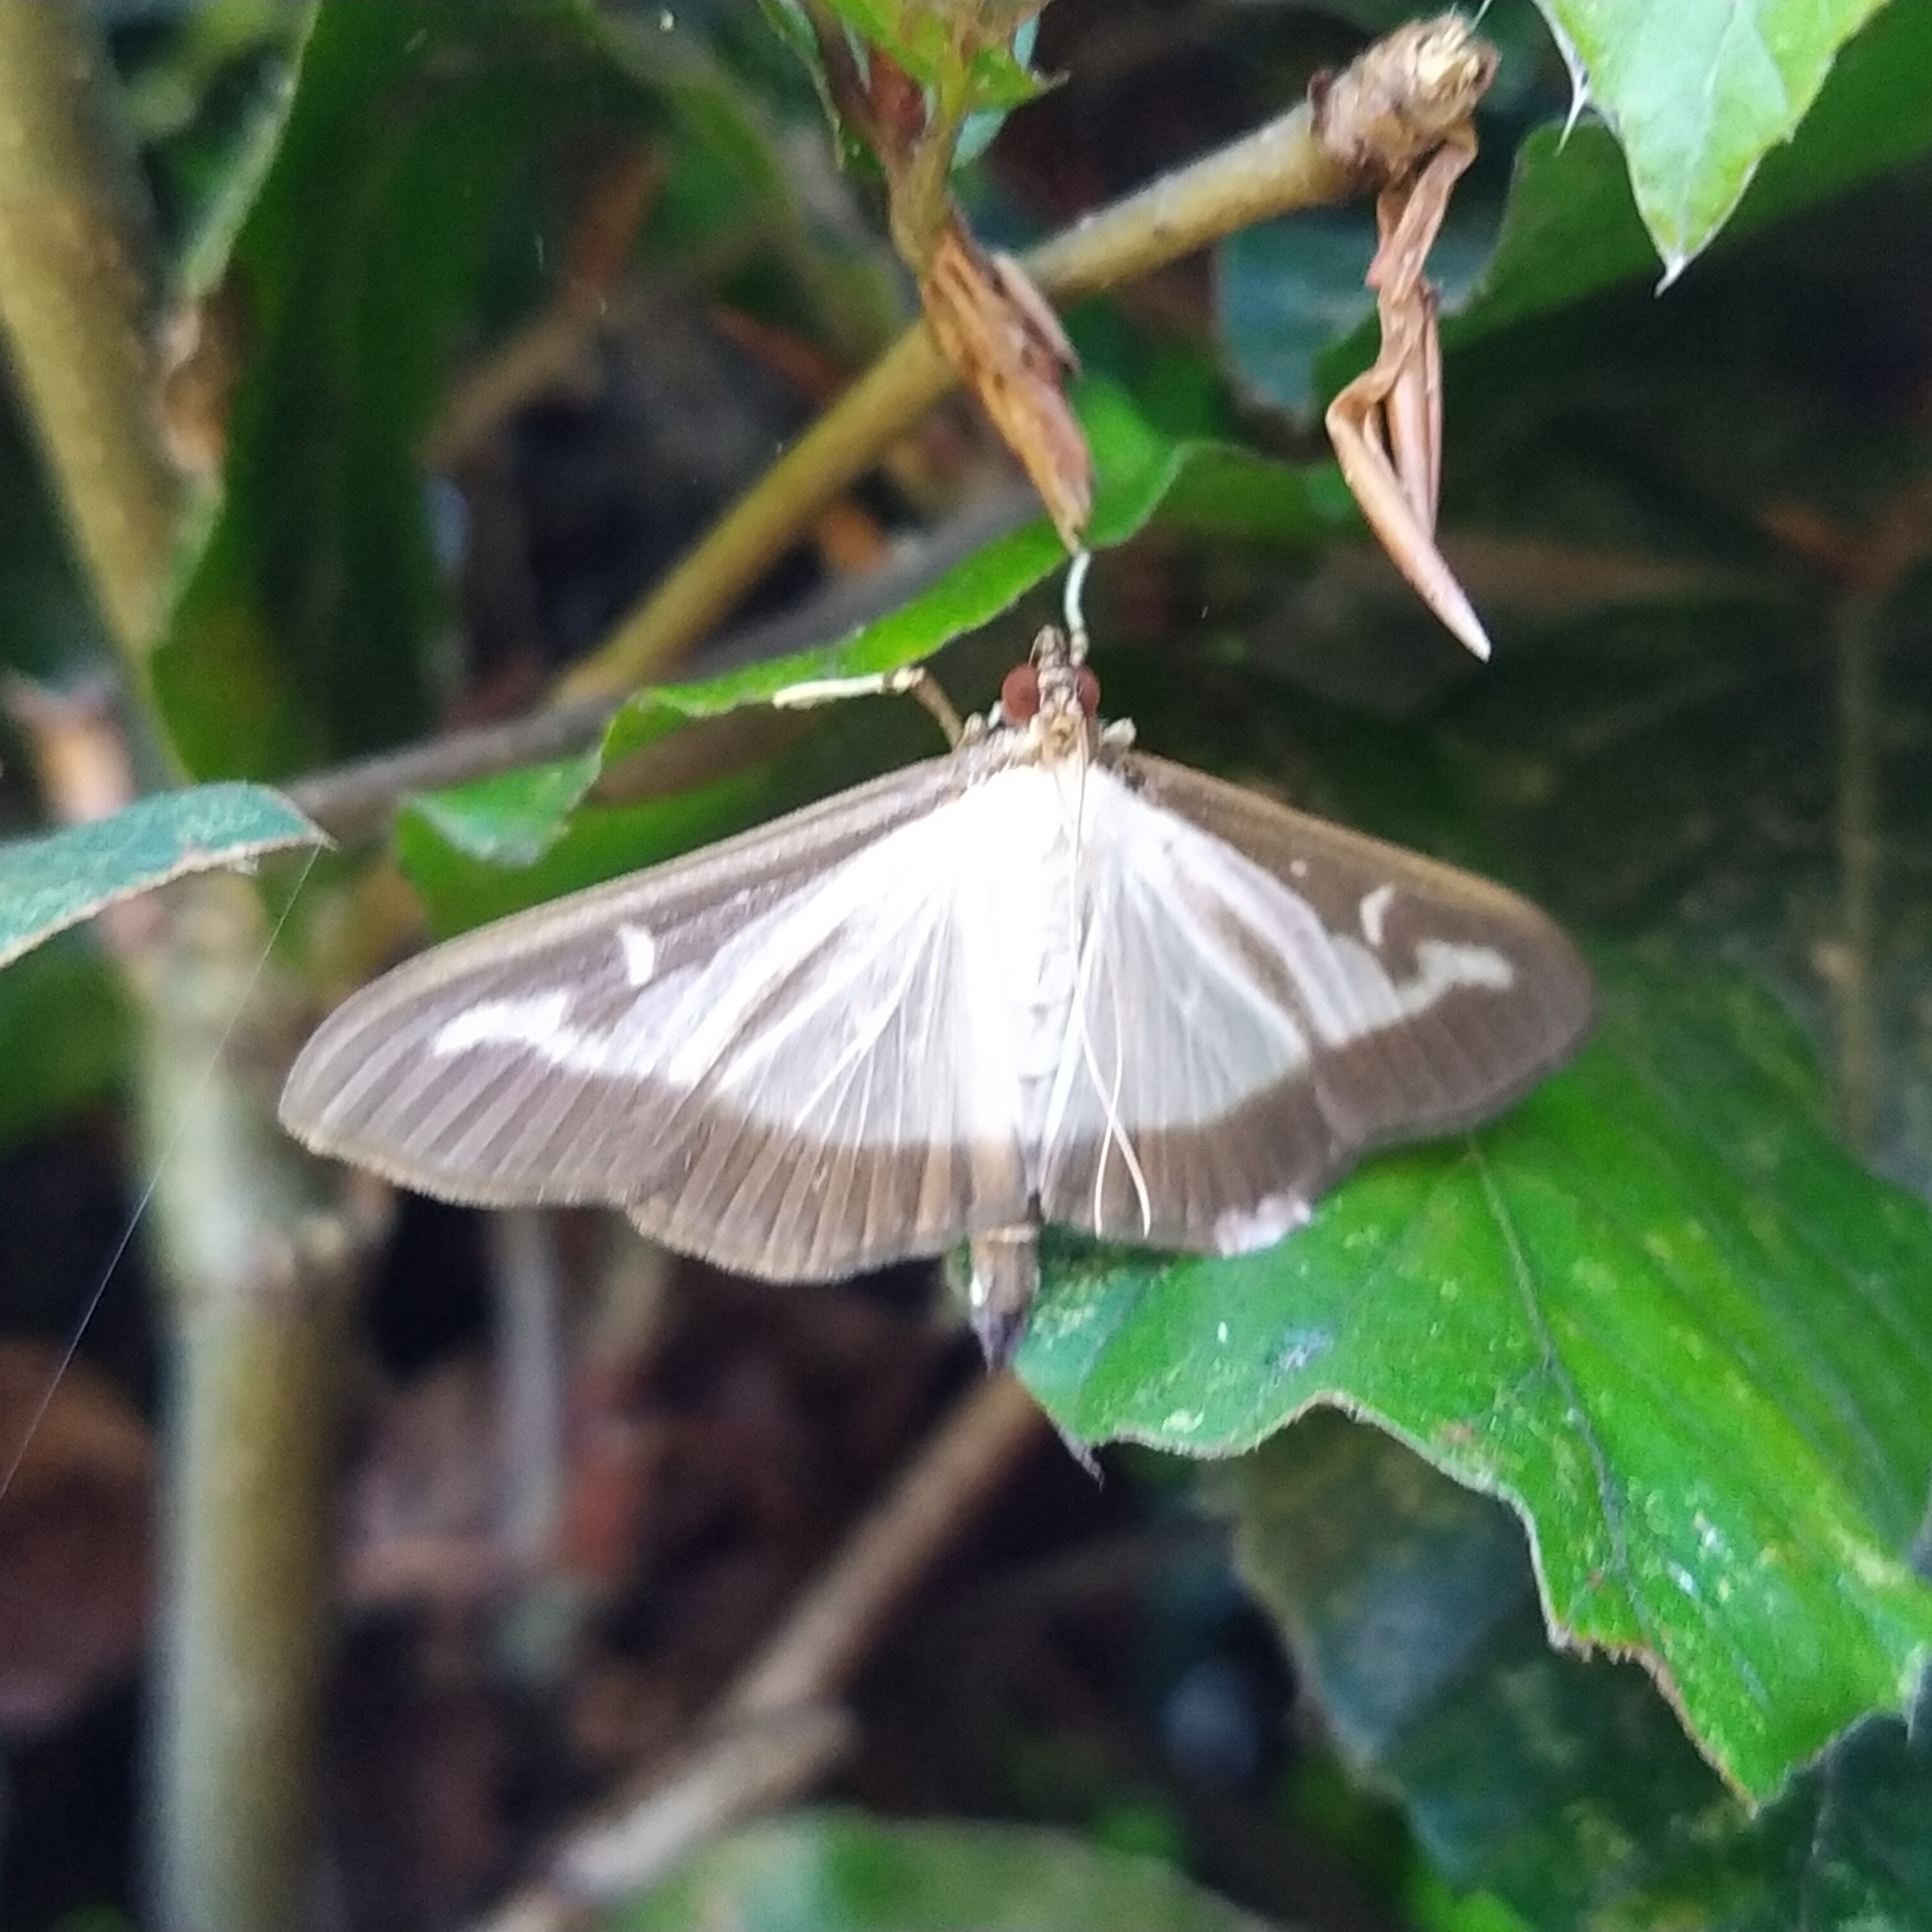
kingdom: Animalia
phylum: Arthropoda
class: Insecta
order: Lepidoptera
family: Crambidae
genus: Cydalima
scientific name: Cydalima perspectalis
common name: Box tree moth
